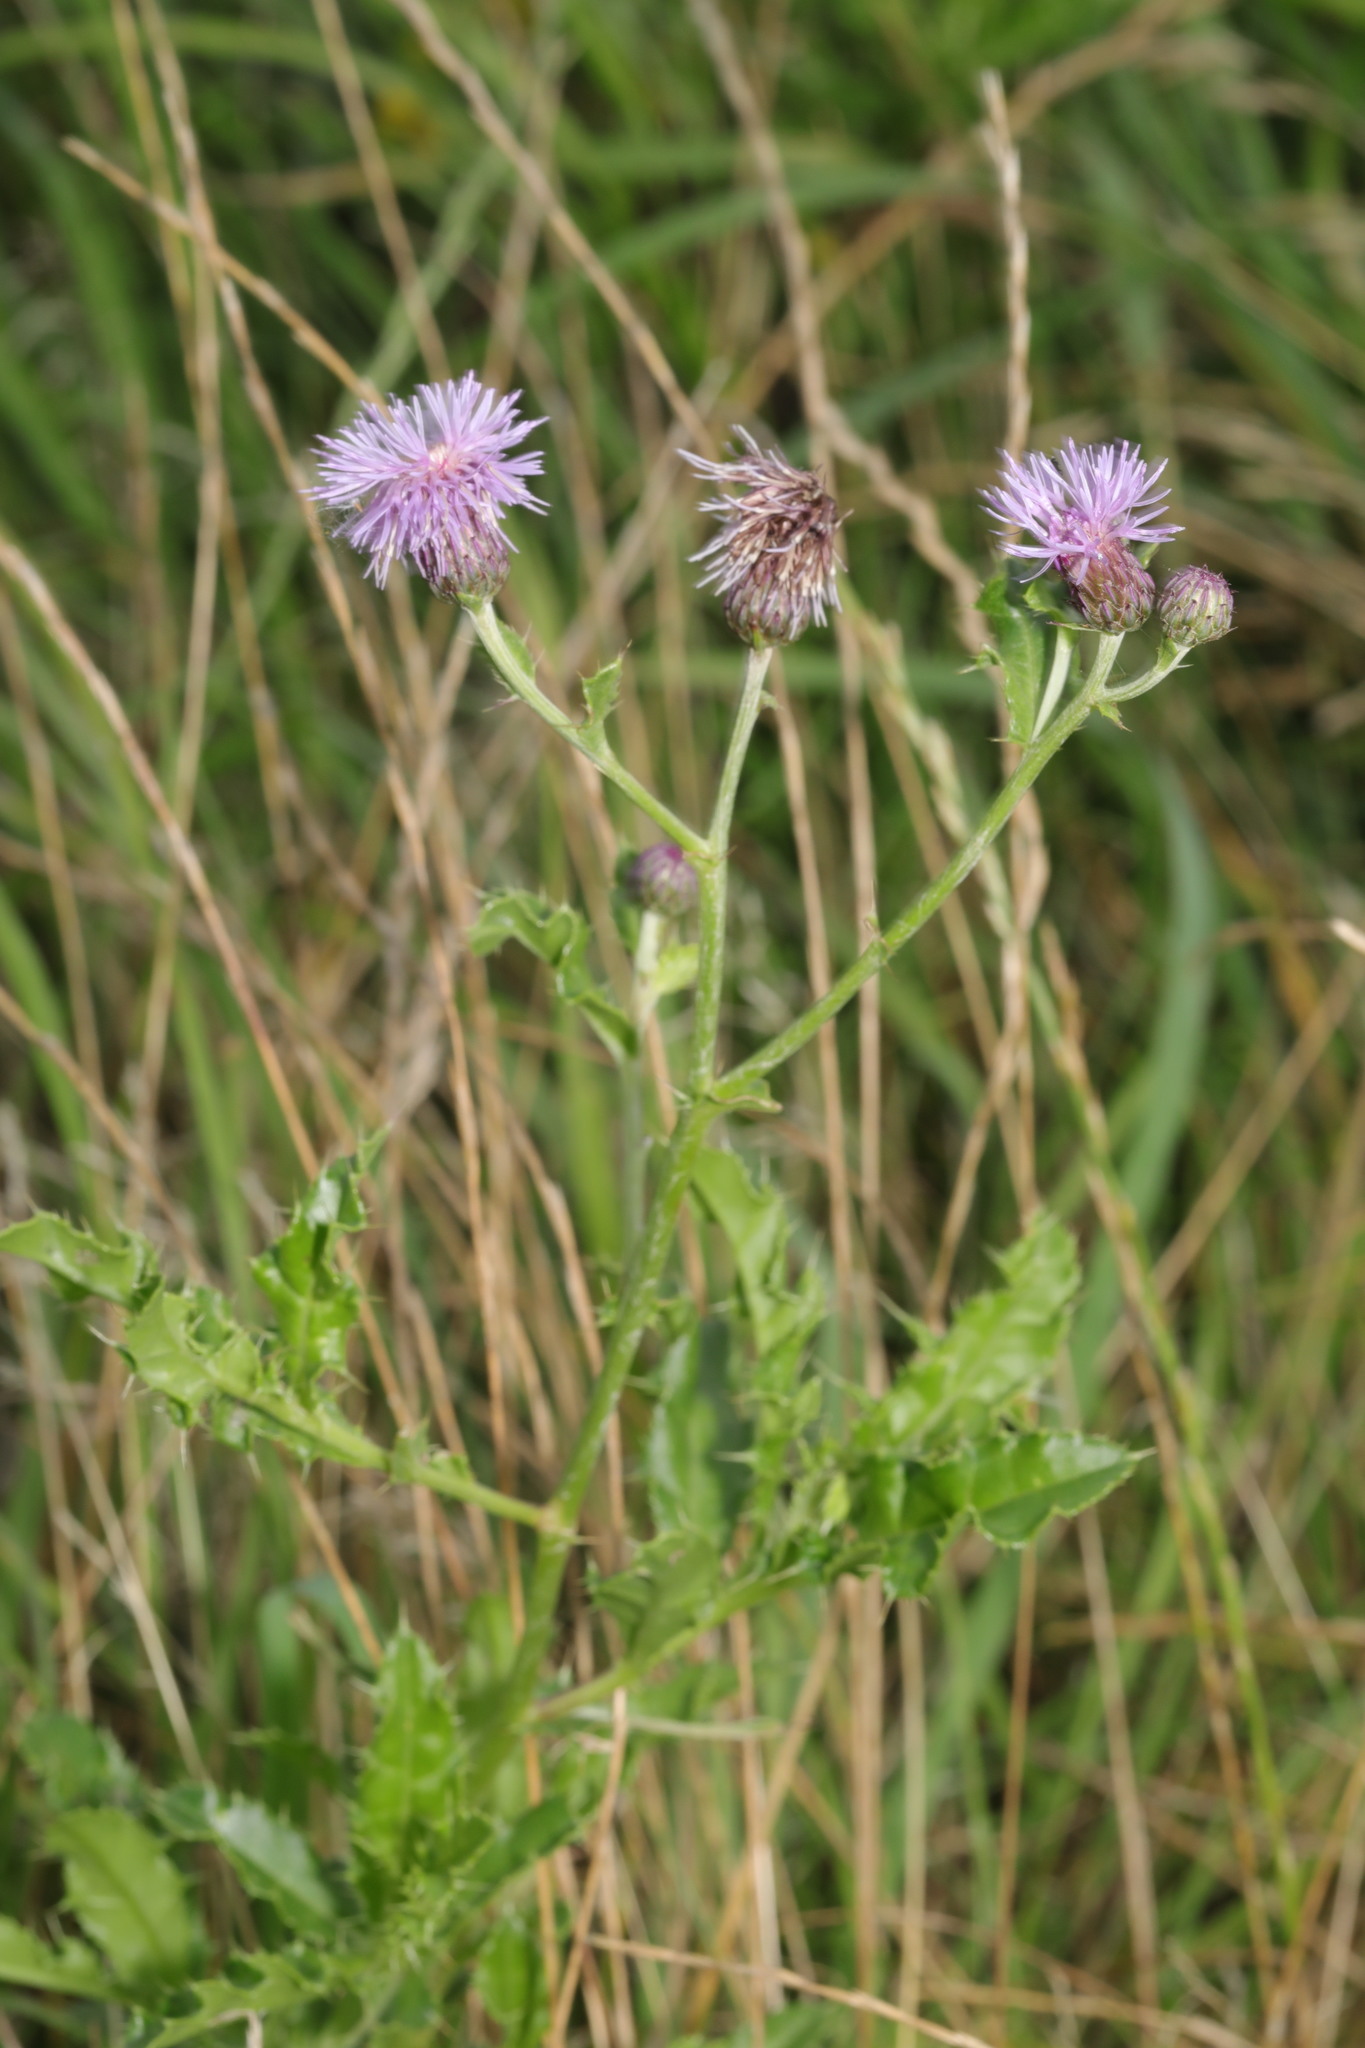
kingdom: Plantae
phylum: Tracheophyta
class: Magnoliopsida
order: Asterales
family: Asteraceae
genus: Cirsium
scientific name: Cirsium arvense
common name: Creeping thistle
